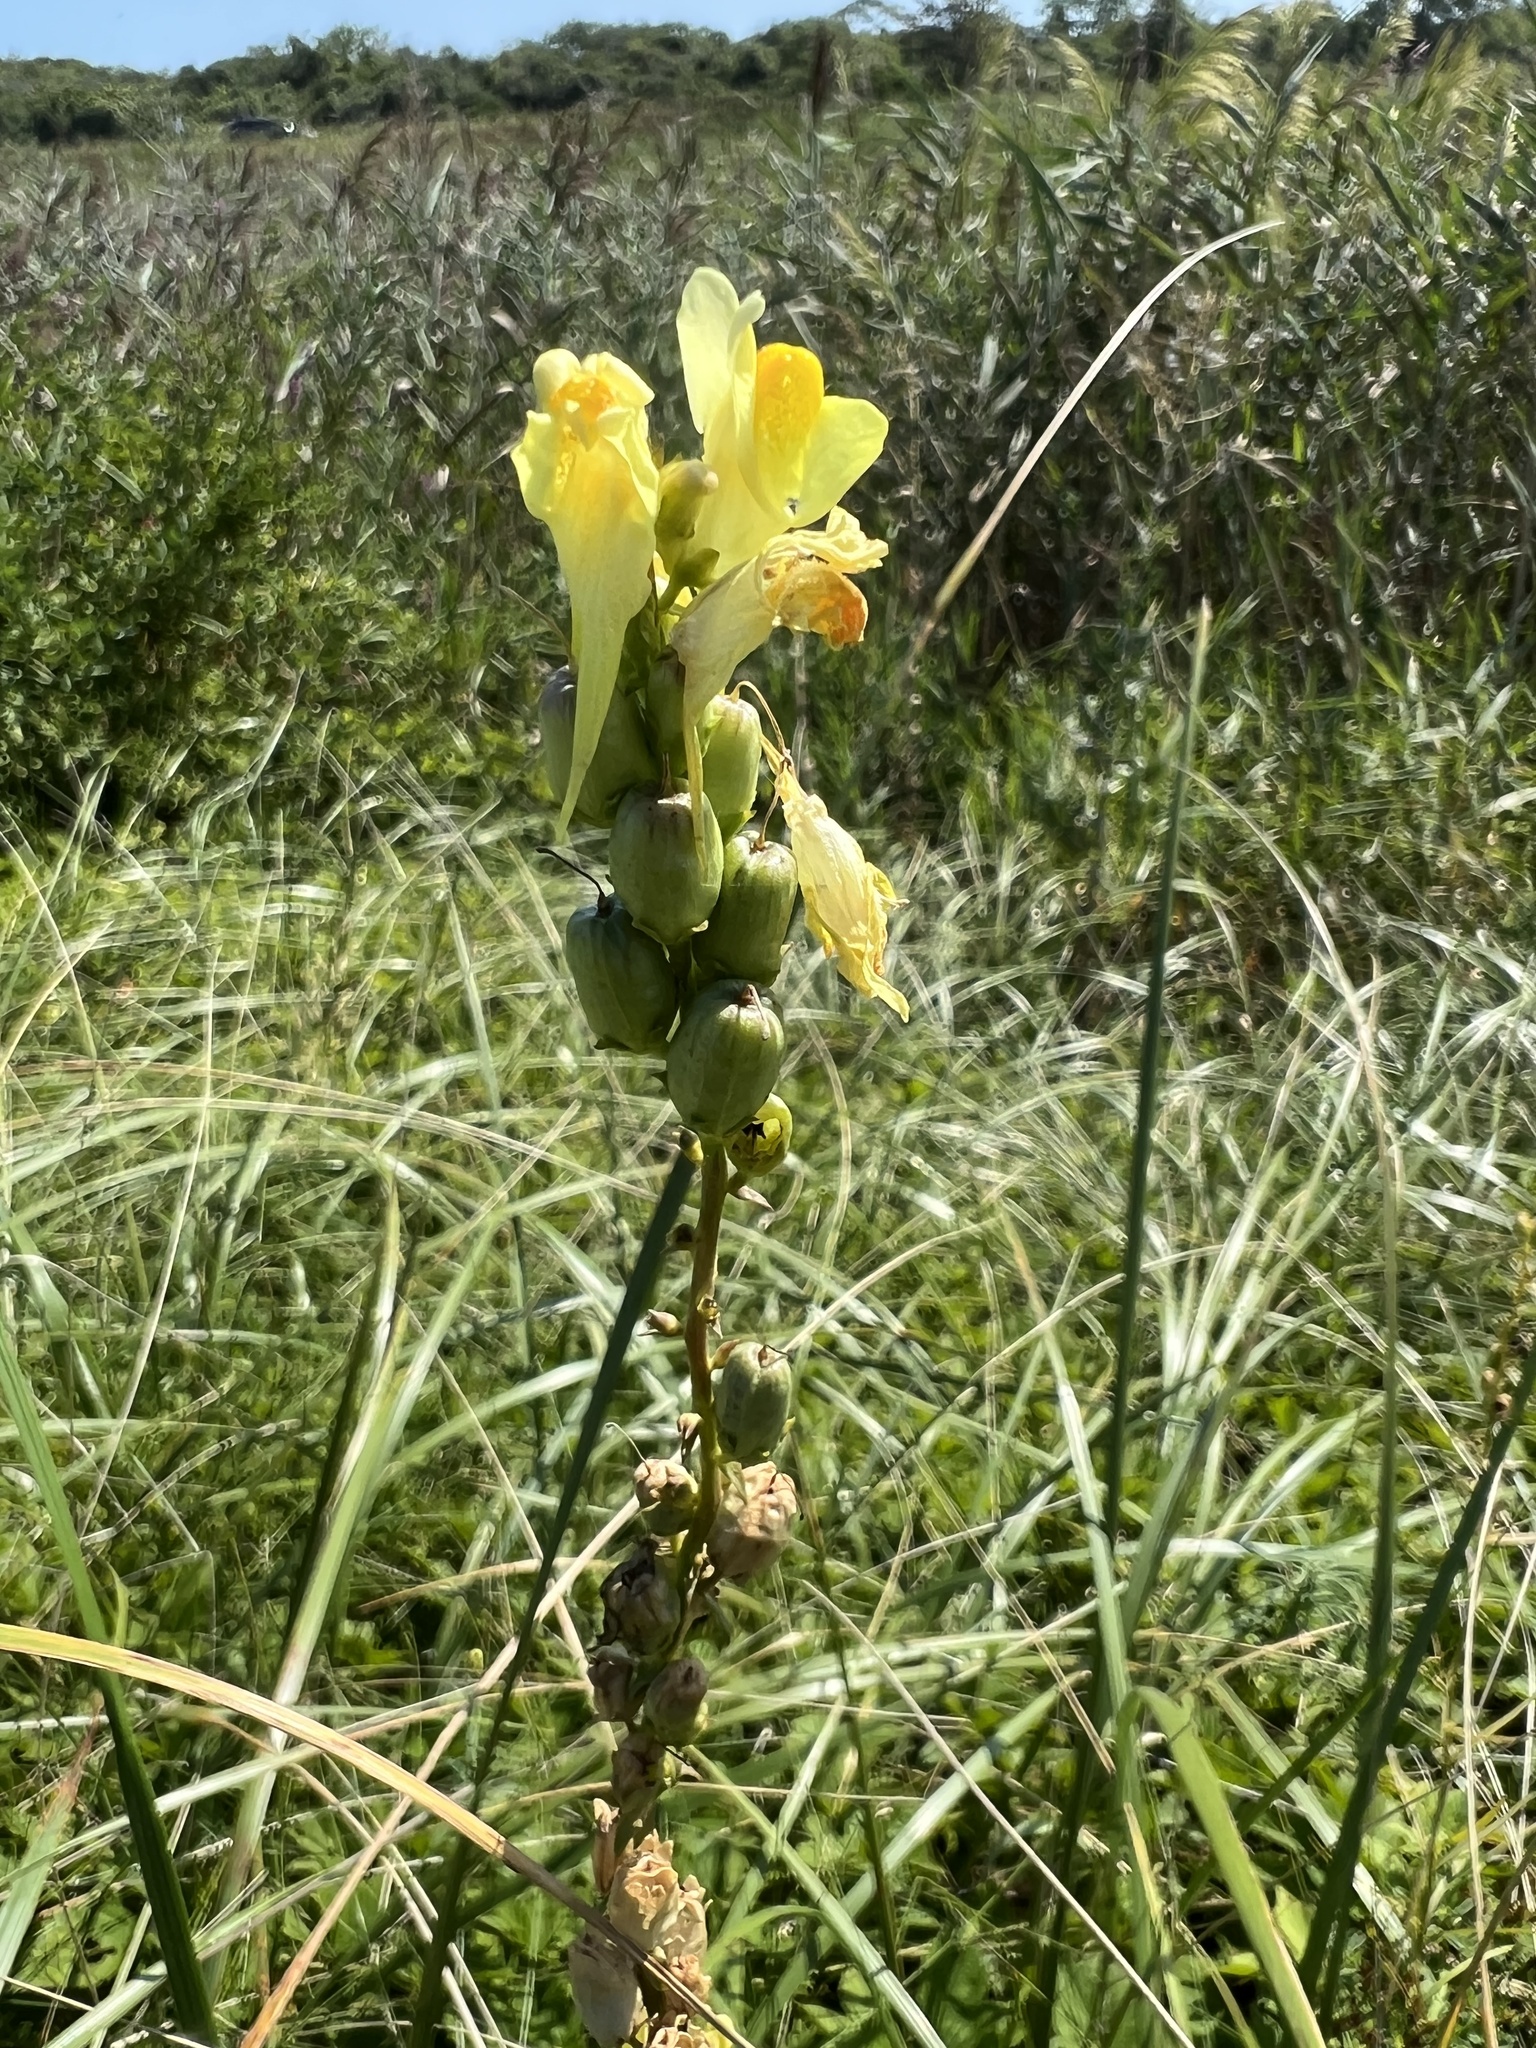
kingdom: Plantae
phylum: Tracheophyta
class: Magnoliopsida
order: Lamiales
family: Plantaginaceae
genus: Linaria
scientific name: Linaria vulgaris
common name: Butter and eggs
